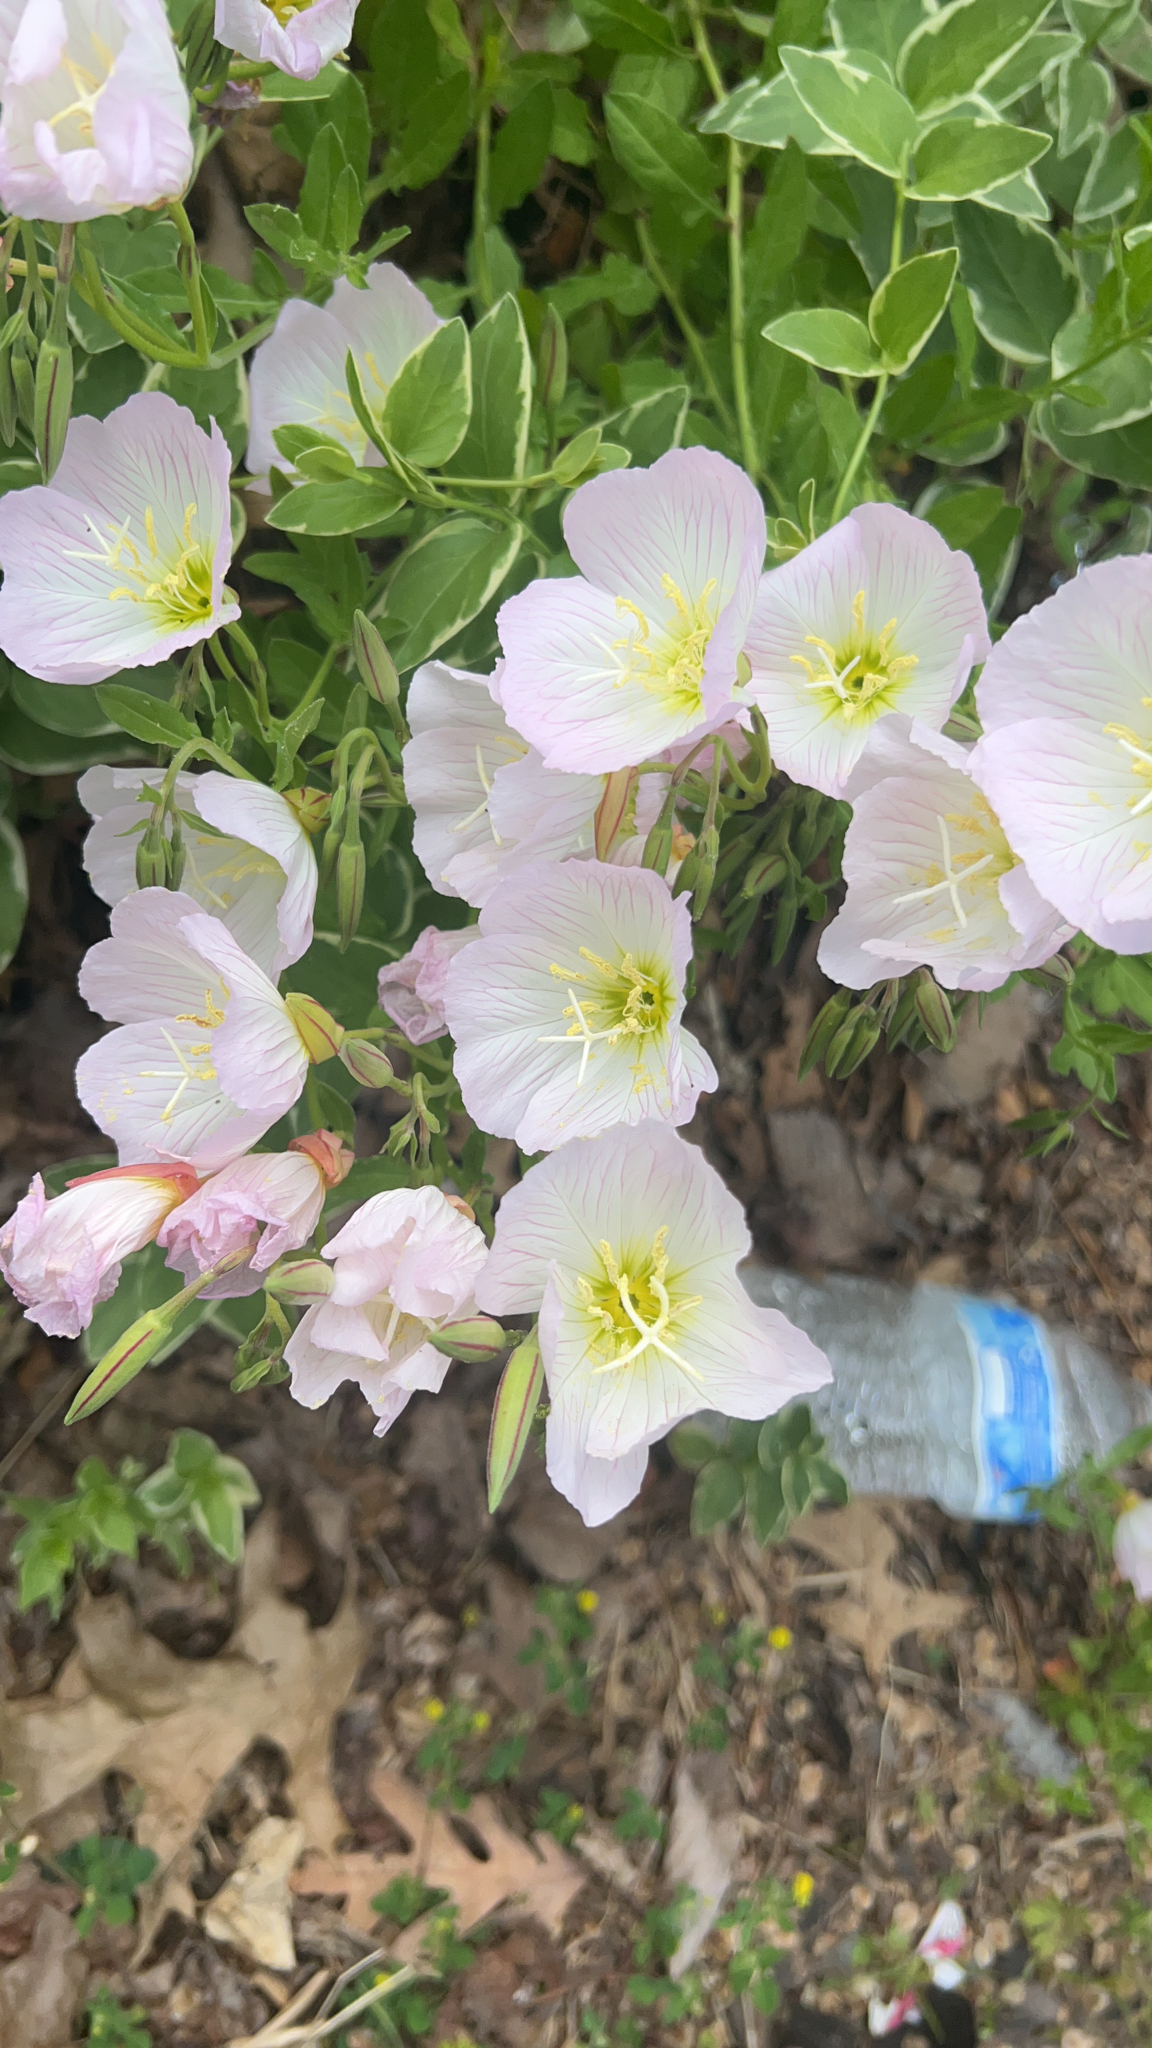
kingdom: Plantae
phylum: Tracheophyta
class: Magnoliopsida
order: Myrtales
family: Onagraceae
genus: Oenothera
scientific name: Oenothera speciosa
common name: White evening-primrose
